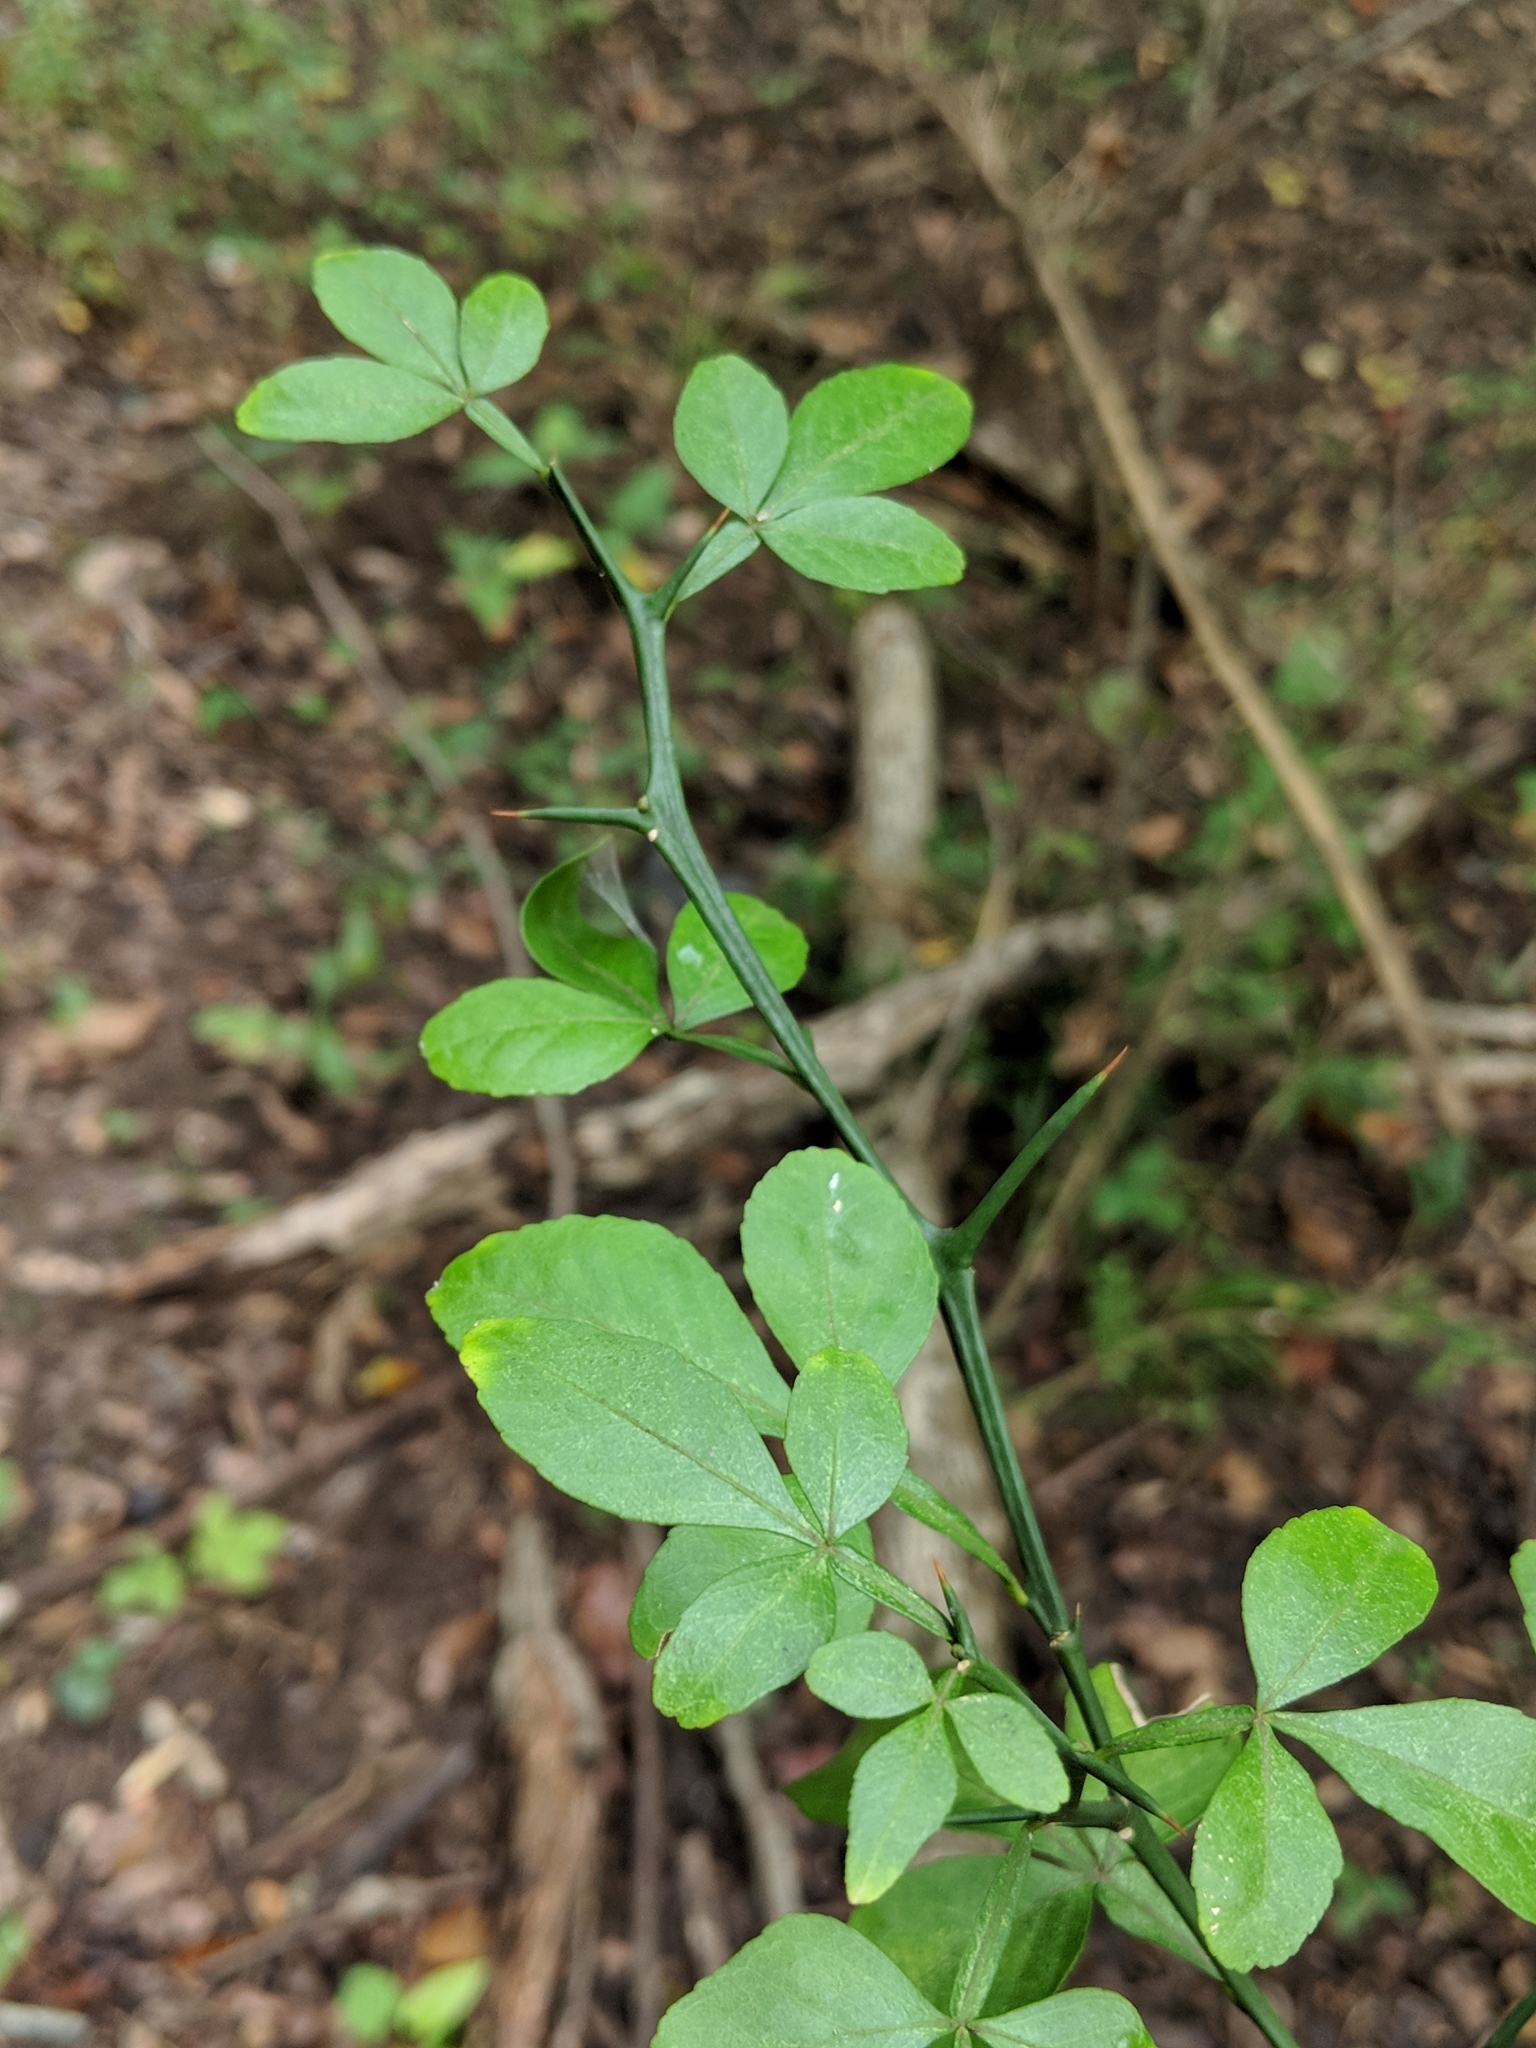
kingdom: Plantae
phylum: Tracheophyta
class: Magnoliopsida
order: Sapindales
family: Rutaceae
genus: Citrus
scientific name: Citrus trifoliata
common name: Japanese bitter-orange
